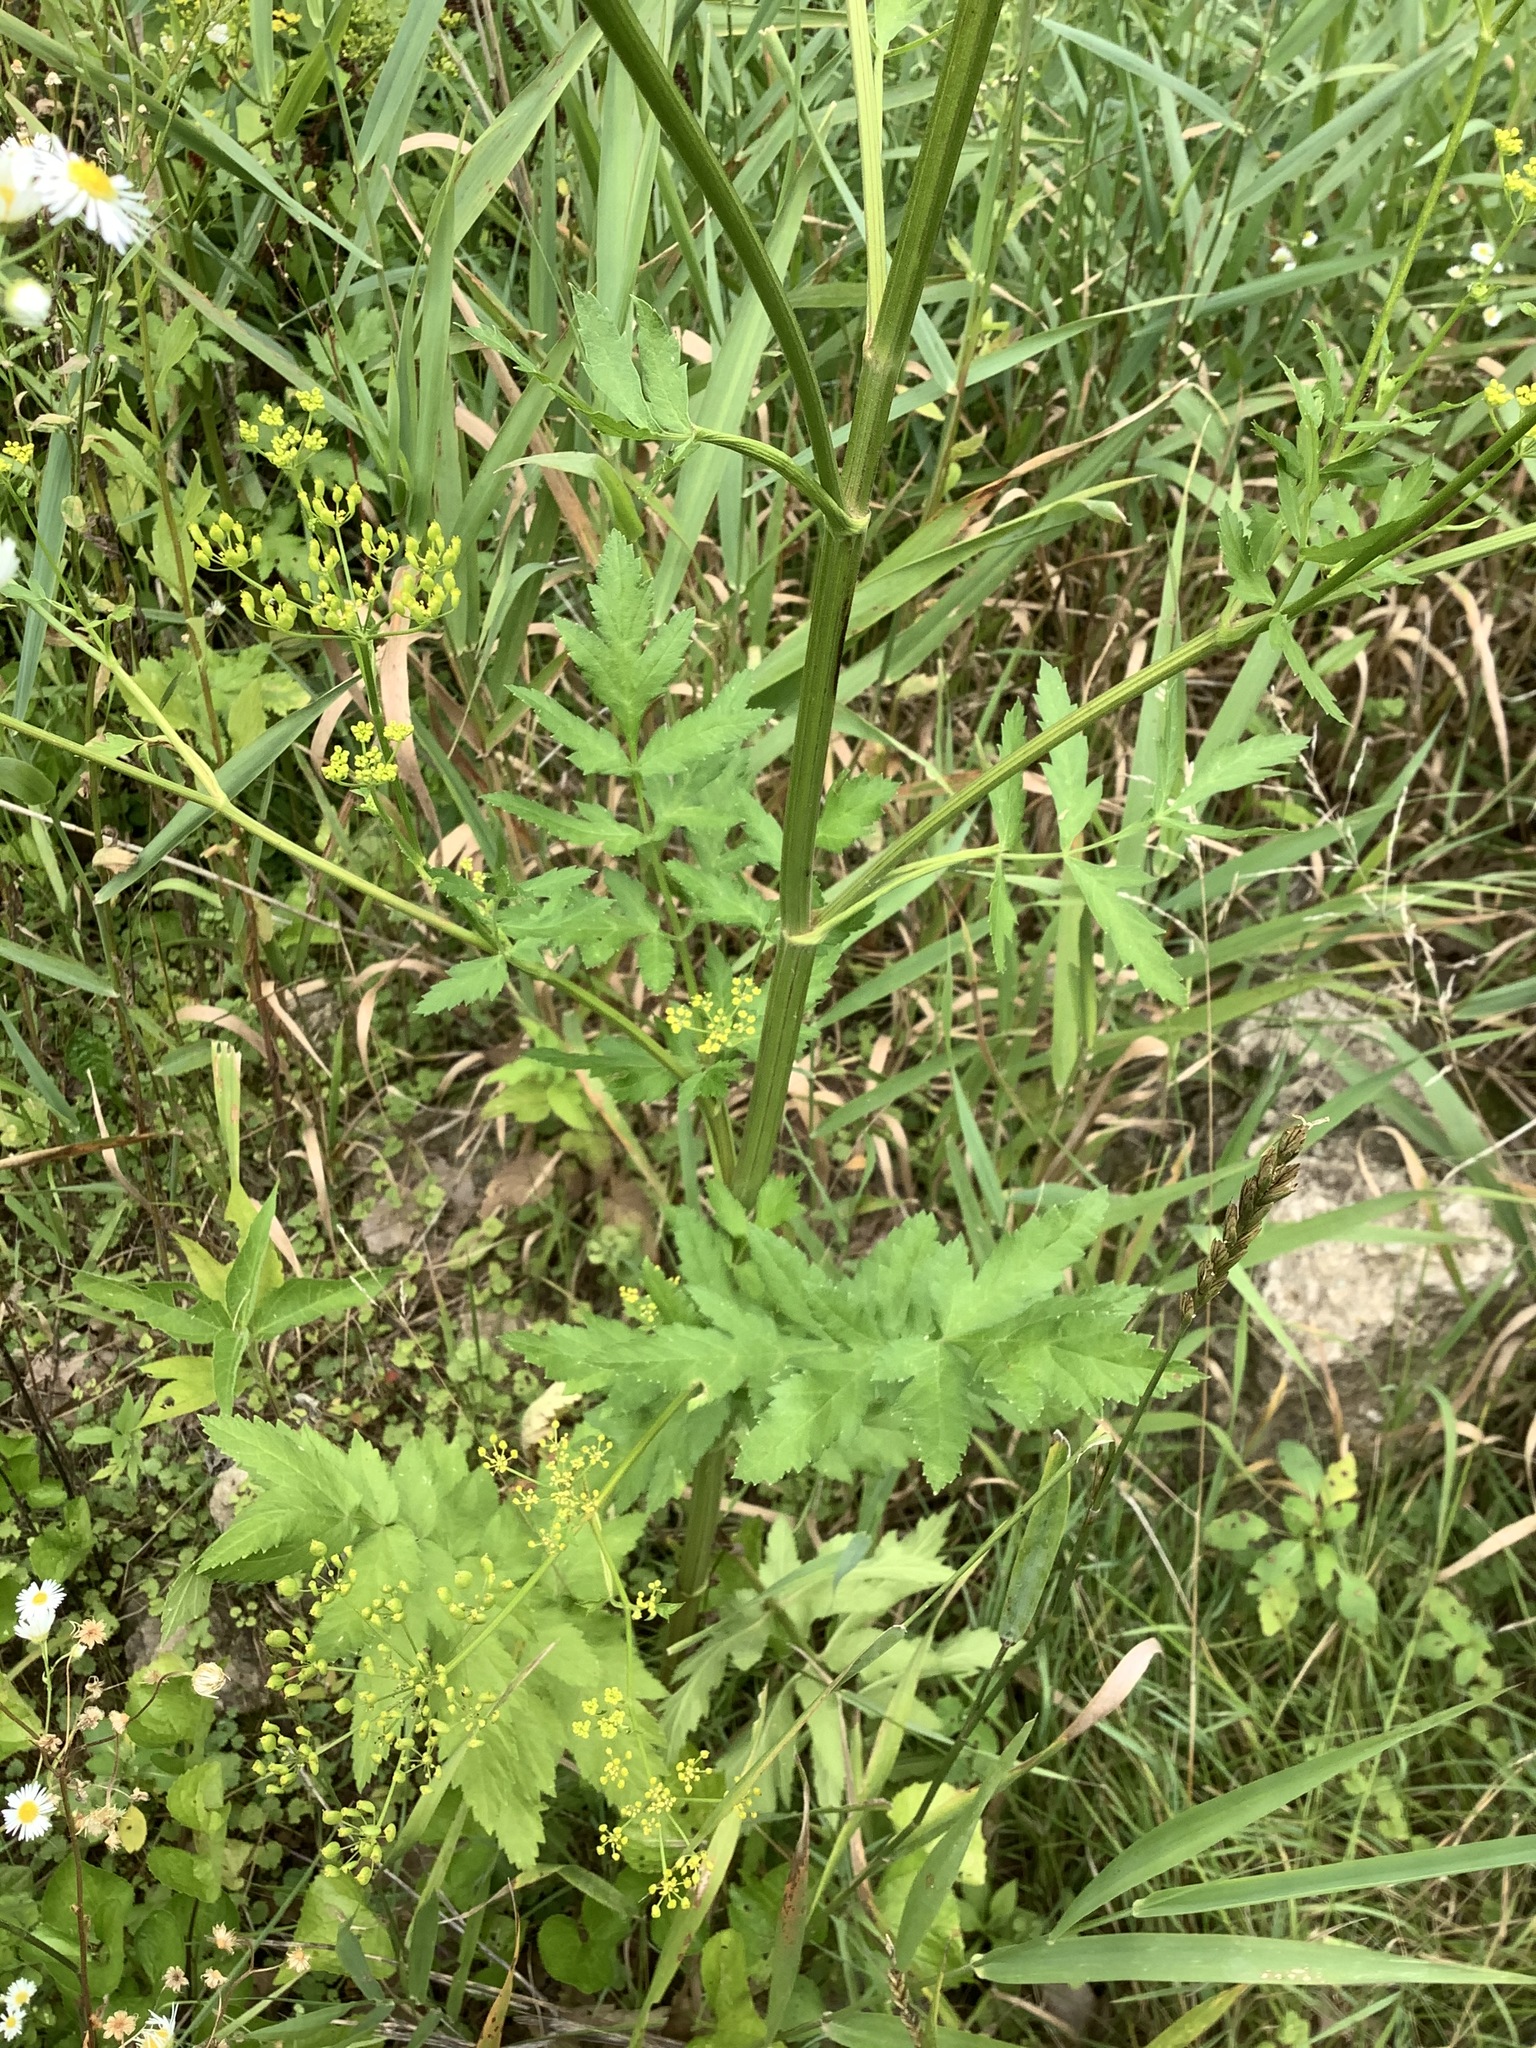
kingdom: Plantae
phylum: Tracheophyta
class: Magnoliopsida
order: Apiales
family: Apiaceae
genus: Pastinaca
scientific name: Pastinaca sativa
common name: Wild parsnip
